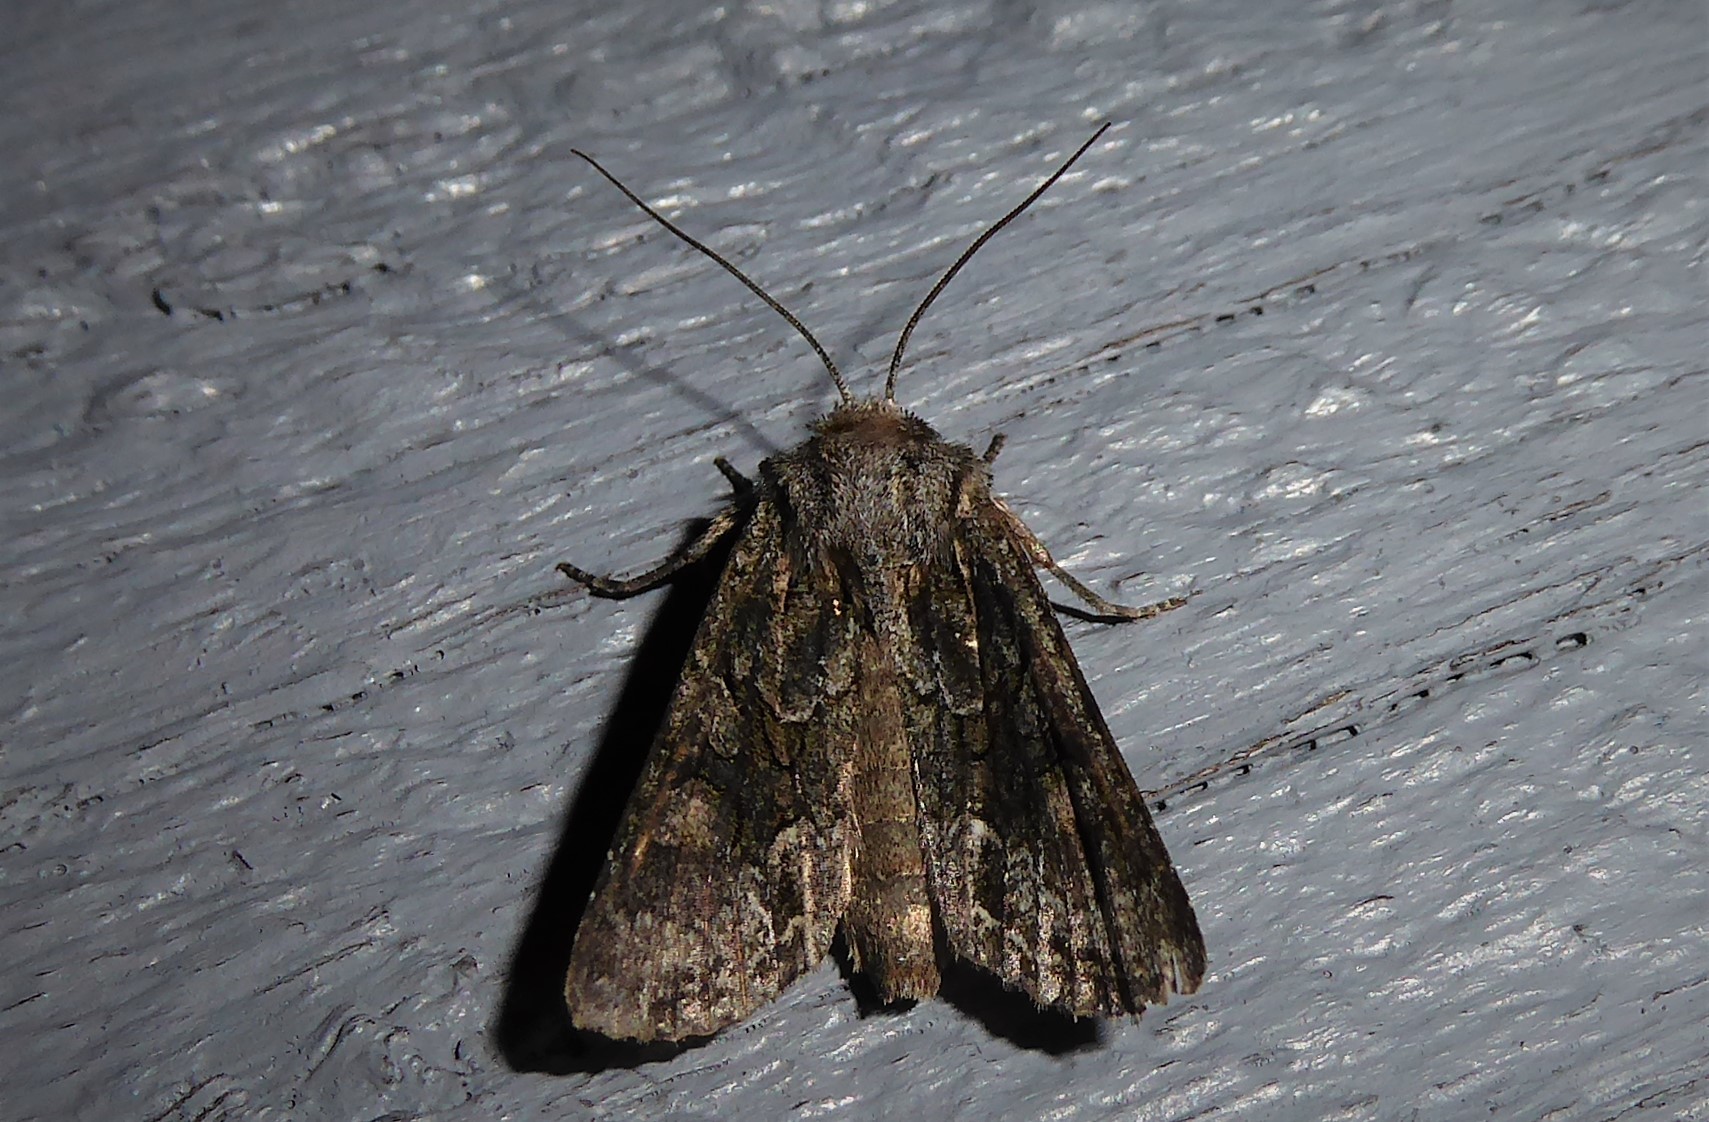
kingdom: Animalia
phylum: Arthropoda
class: Insecta
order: Lepidoptera
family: Noctuidae
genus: Ichneutica
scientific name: Ichneutica mutans
